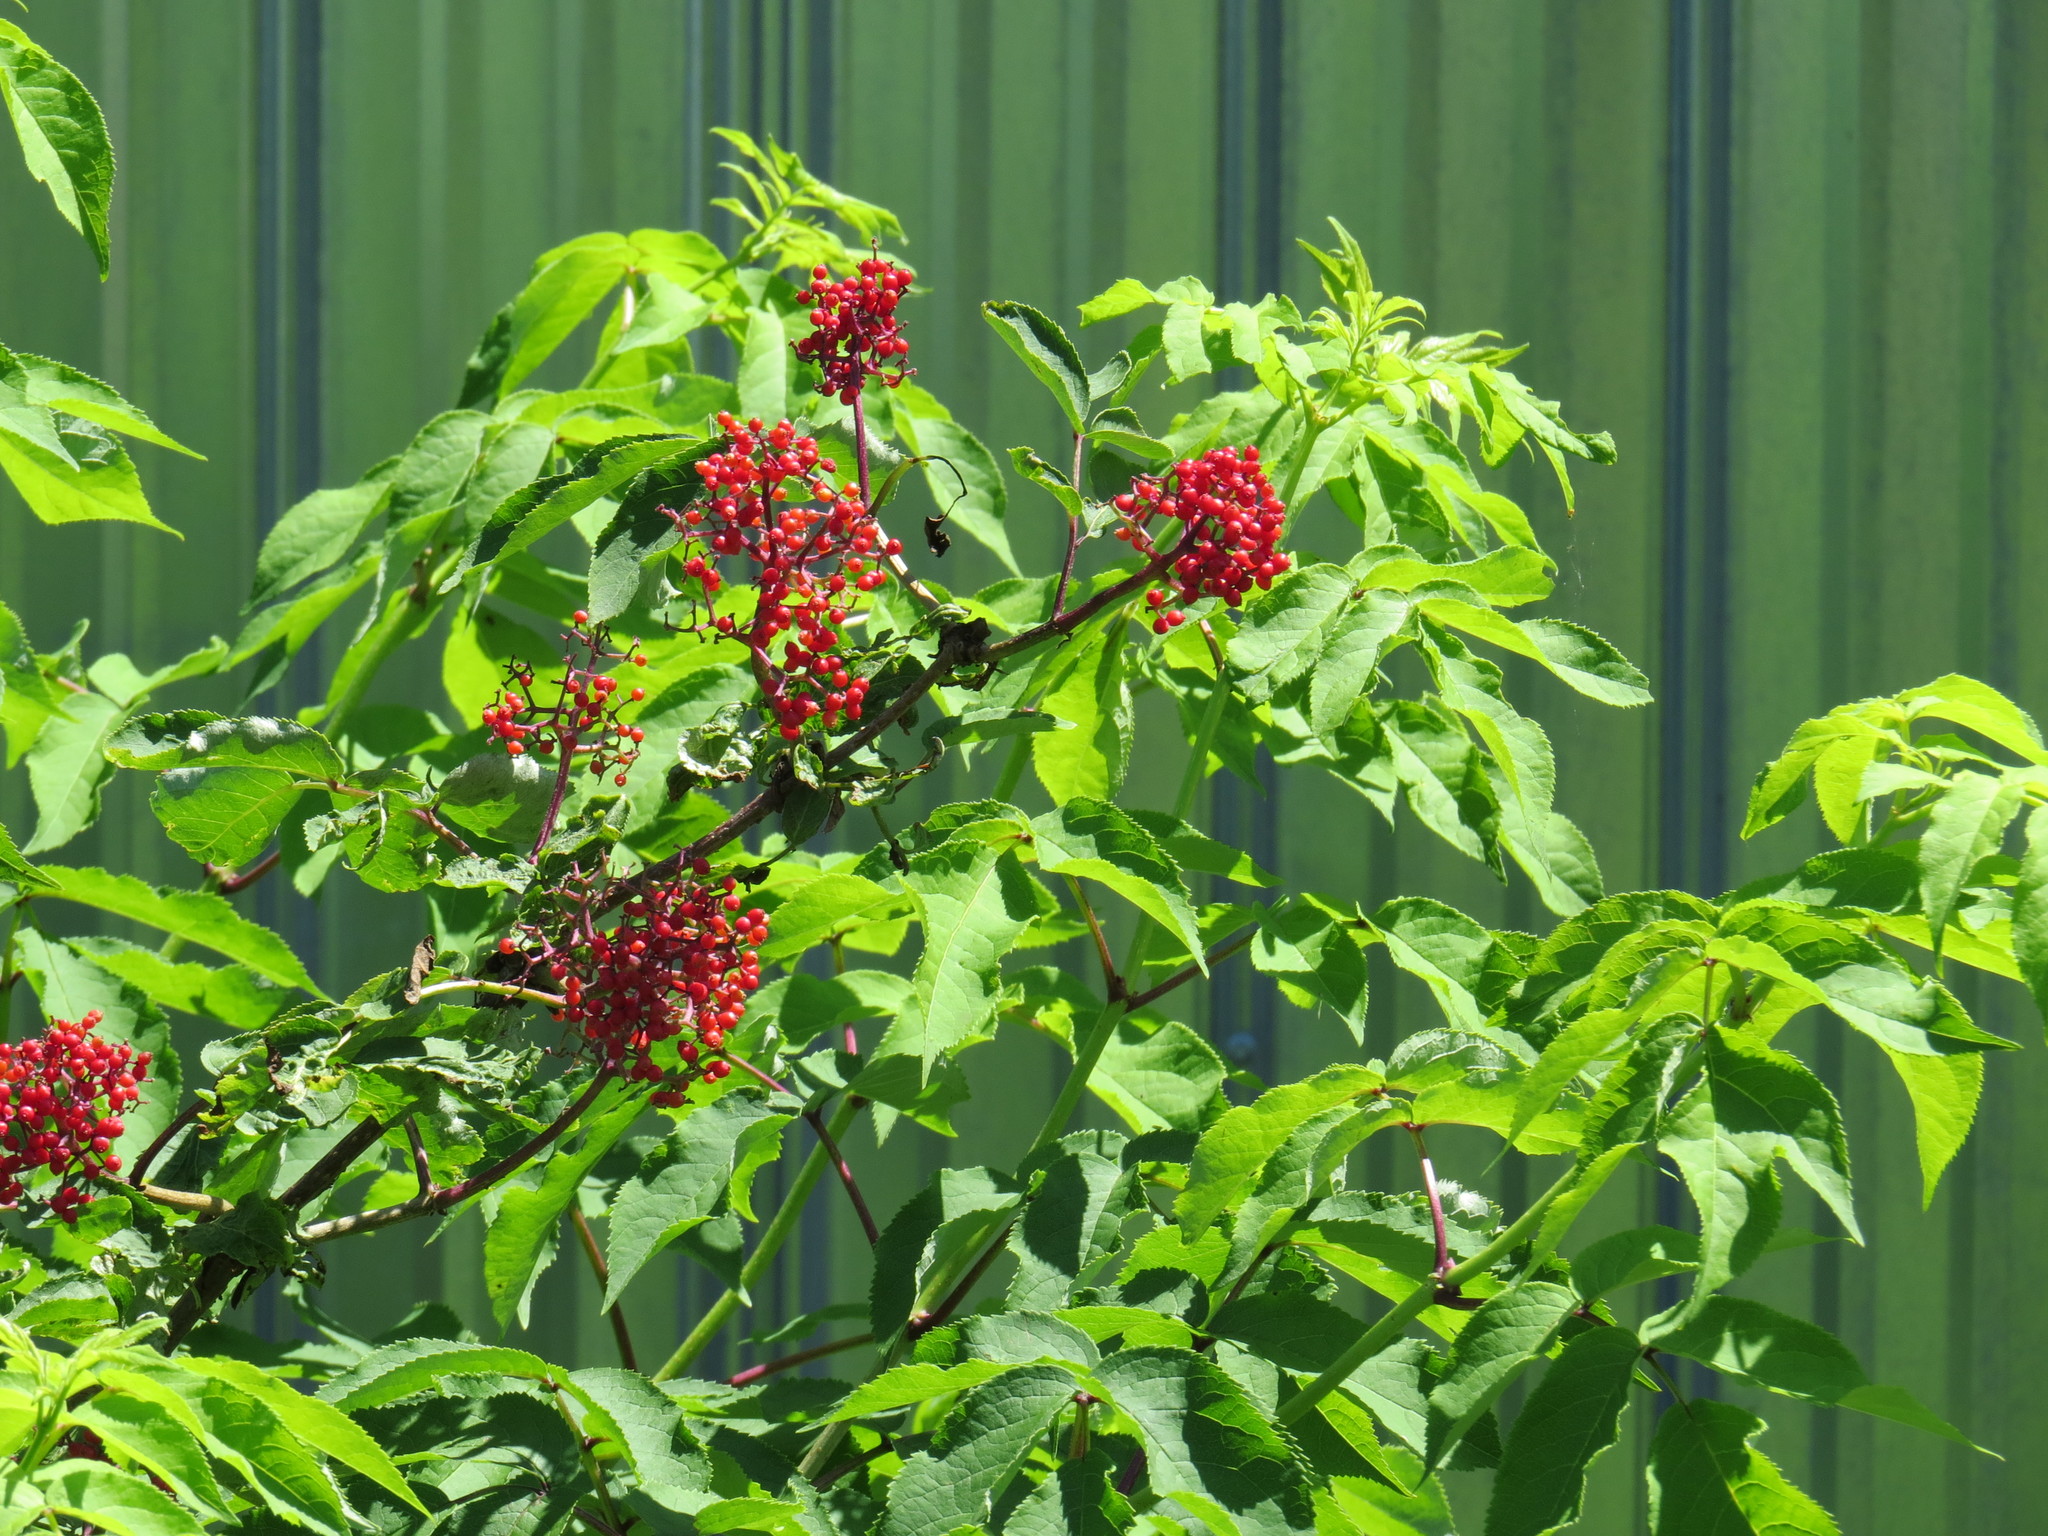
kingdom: Plantae
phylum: Tracheophyta
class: Magnoliopsida
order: Dipsacales
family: Viburnaceae
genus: Sambucus
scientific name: Sambucus racemosa
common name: Red-berried elder
